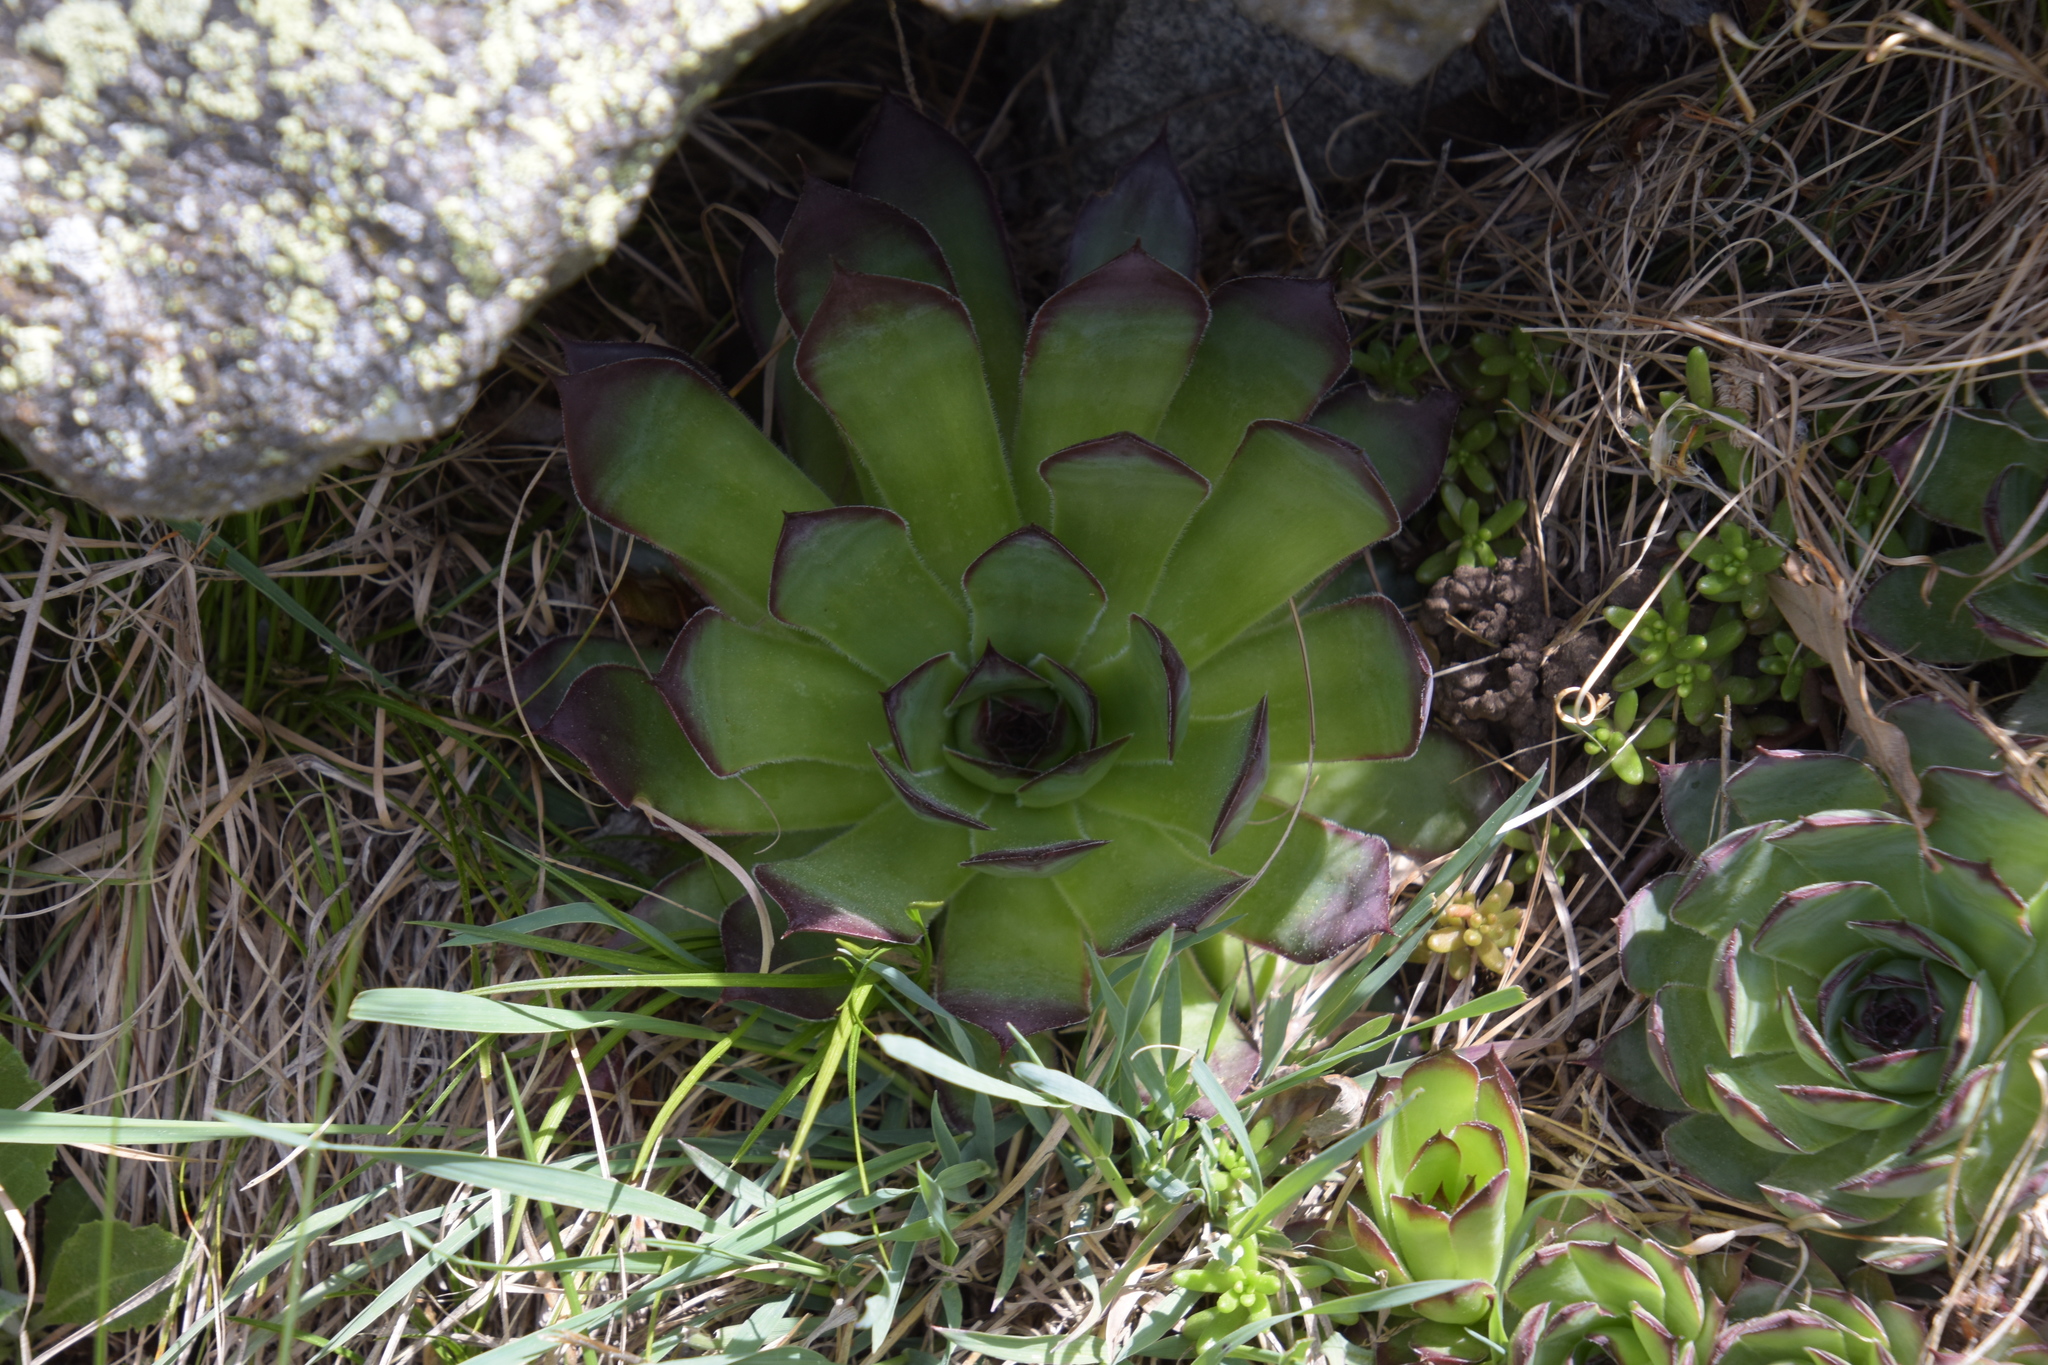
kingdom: Plantae
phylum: Tracheophyta
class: Magnoliopsida
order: Saxifragales
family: Crassulaceae
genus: Sempervivum
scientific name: Sempervivum tectorum
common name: House-leek
